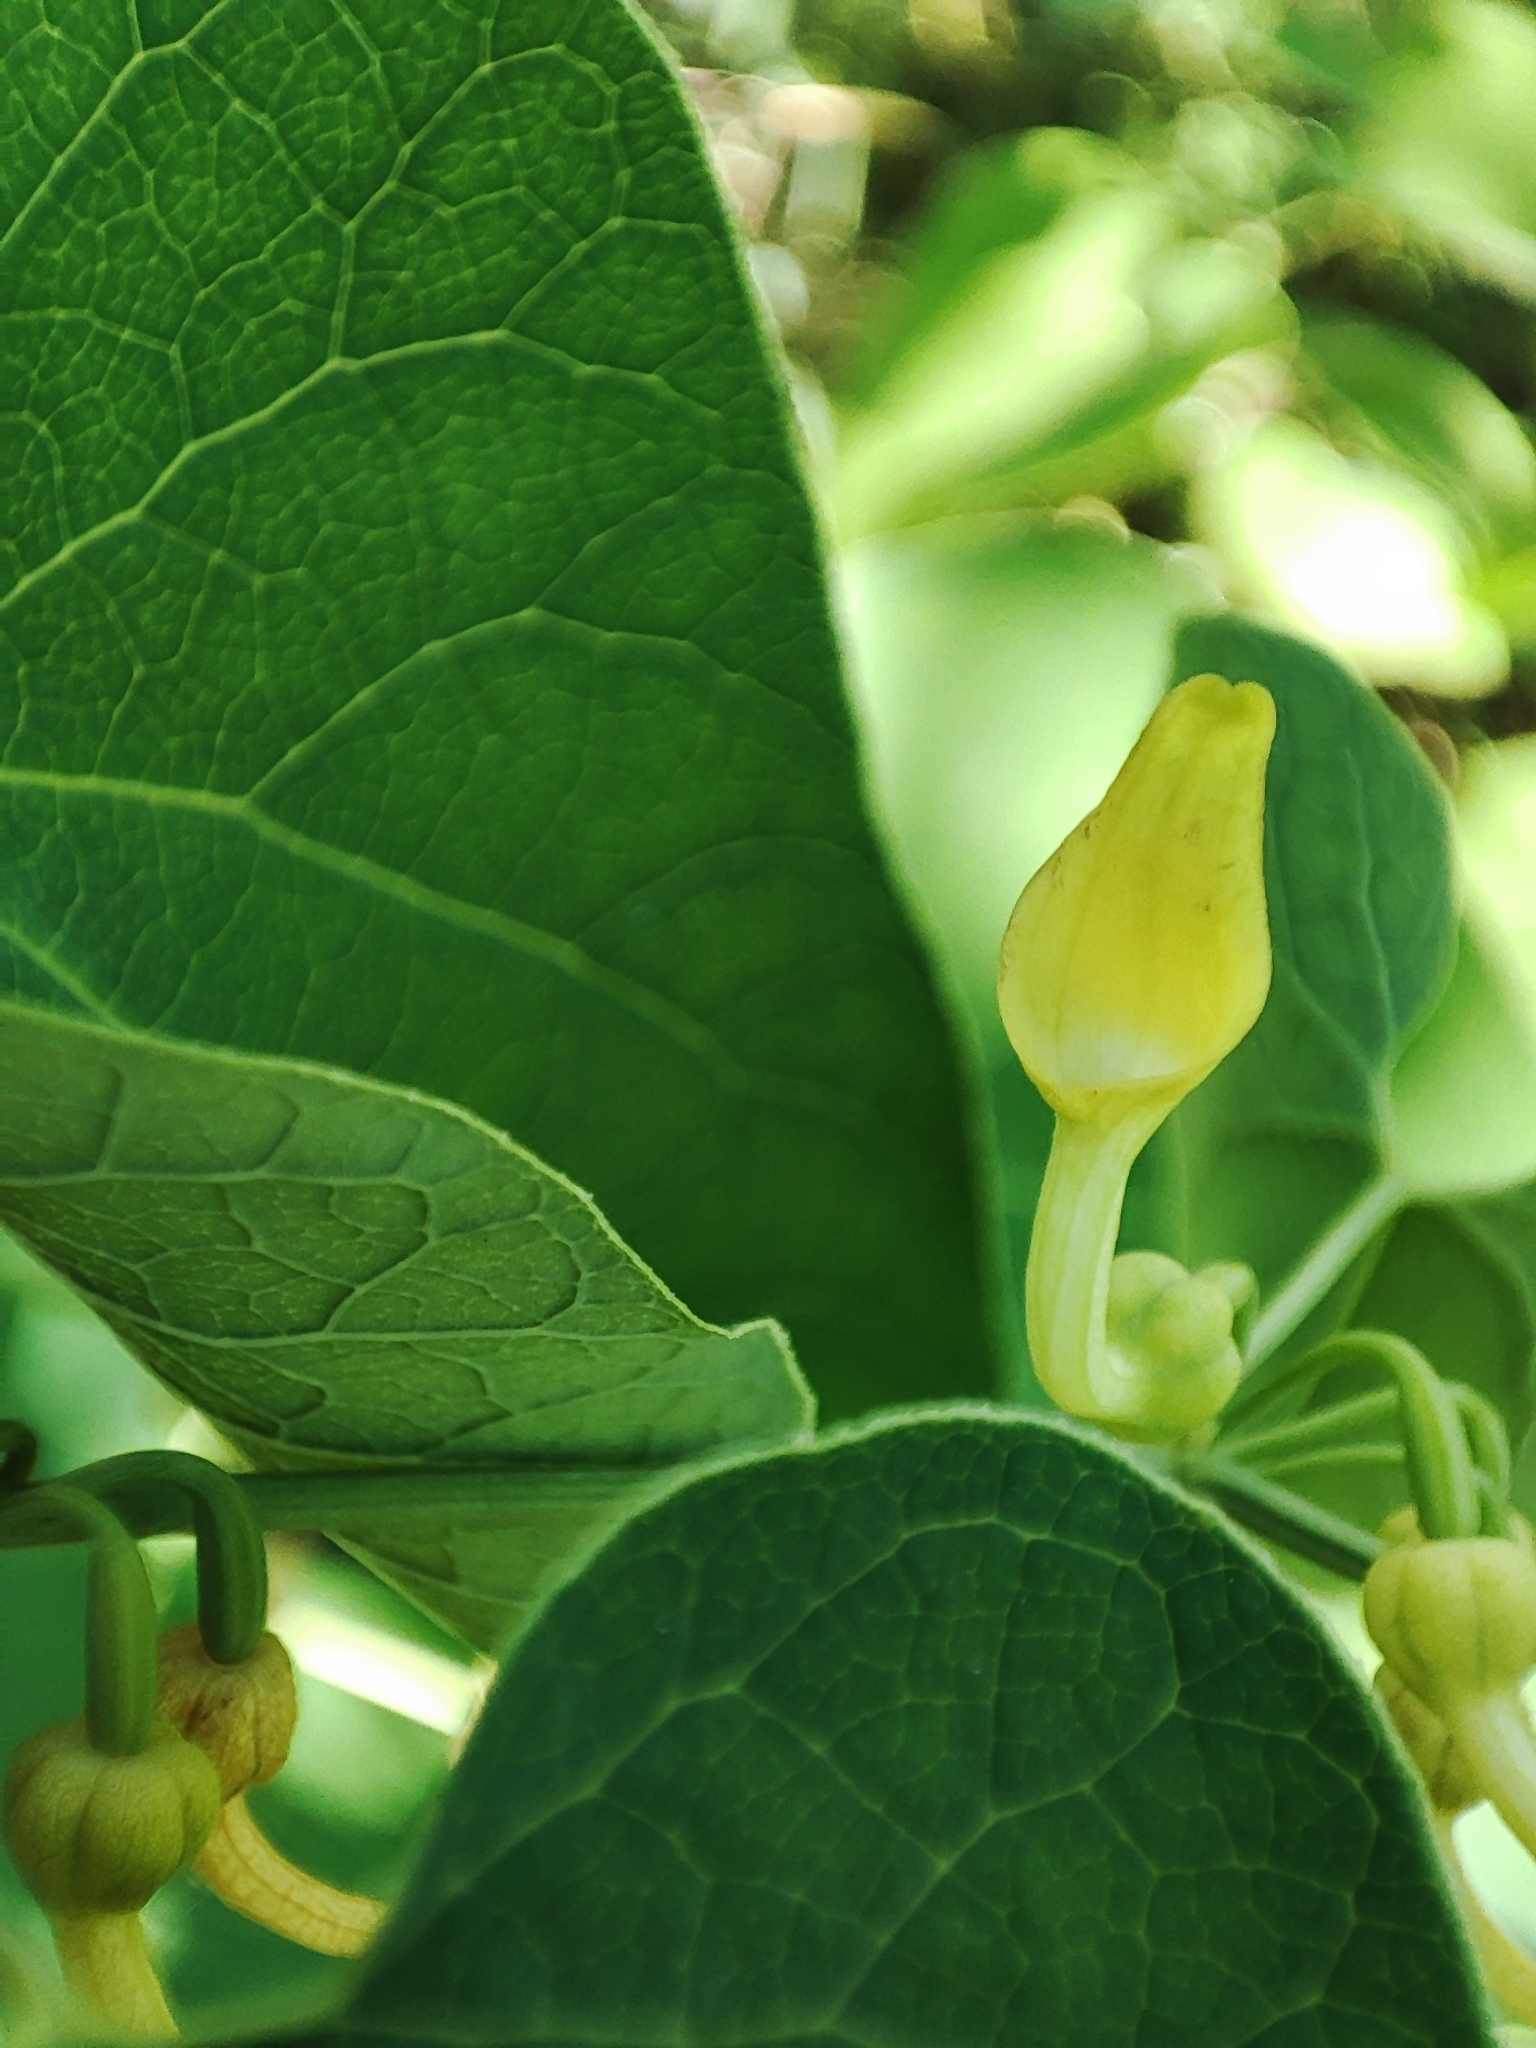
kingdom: Plantae
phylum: Tracheophyta
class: Magnoliopsida
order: Piperales
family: Aristolochiaceae
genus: Aristolochia
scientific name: Aristolochia clematitis
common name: Birthwort
